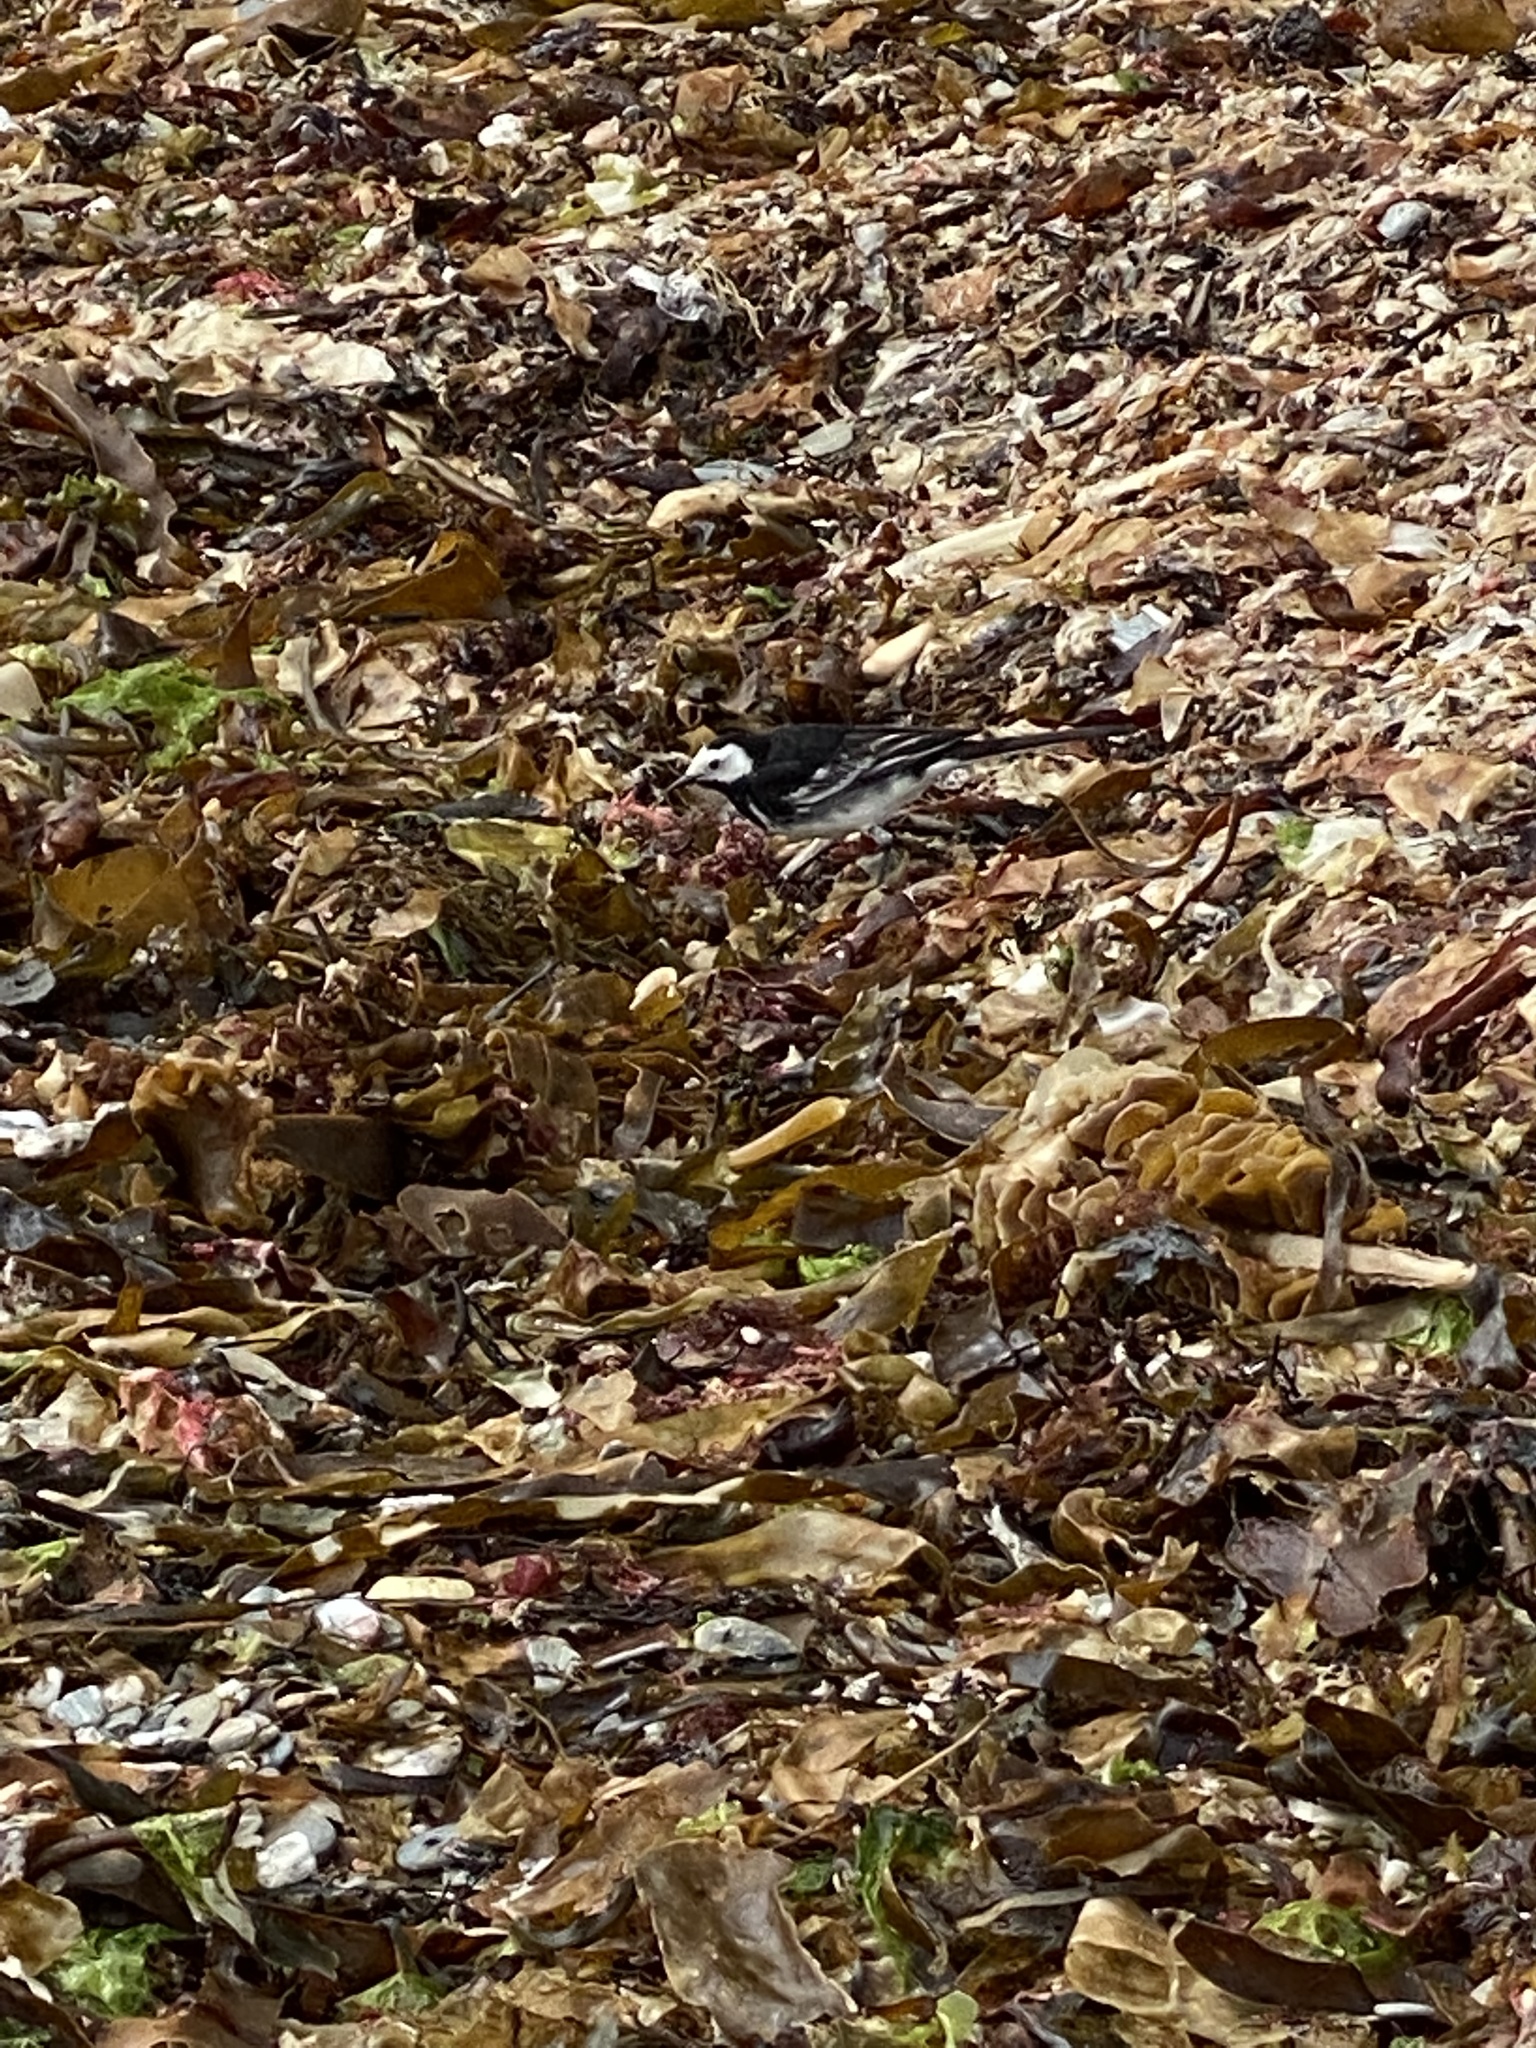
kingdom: Animalia
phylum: Chordata
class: Aves
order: Passeriformes
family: Motacillidae
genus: Motacilla
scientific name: Motacilla alba
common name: White wagtail
